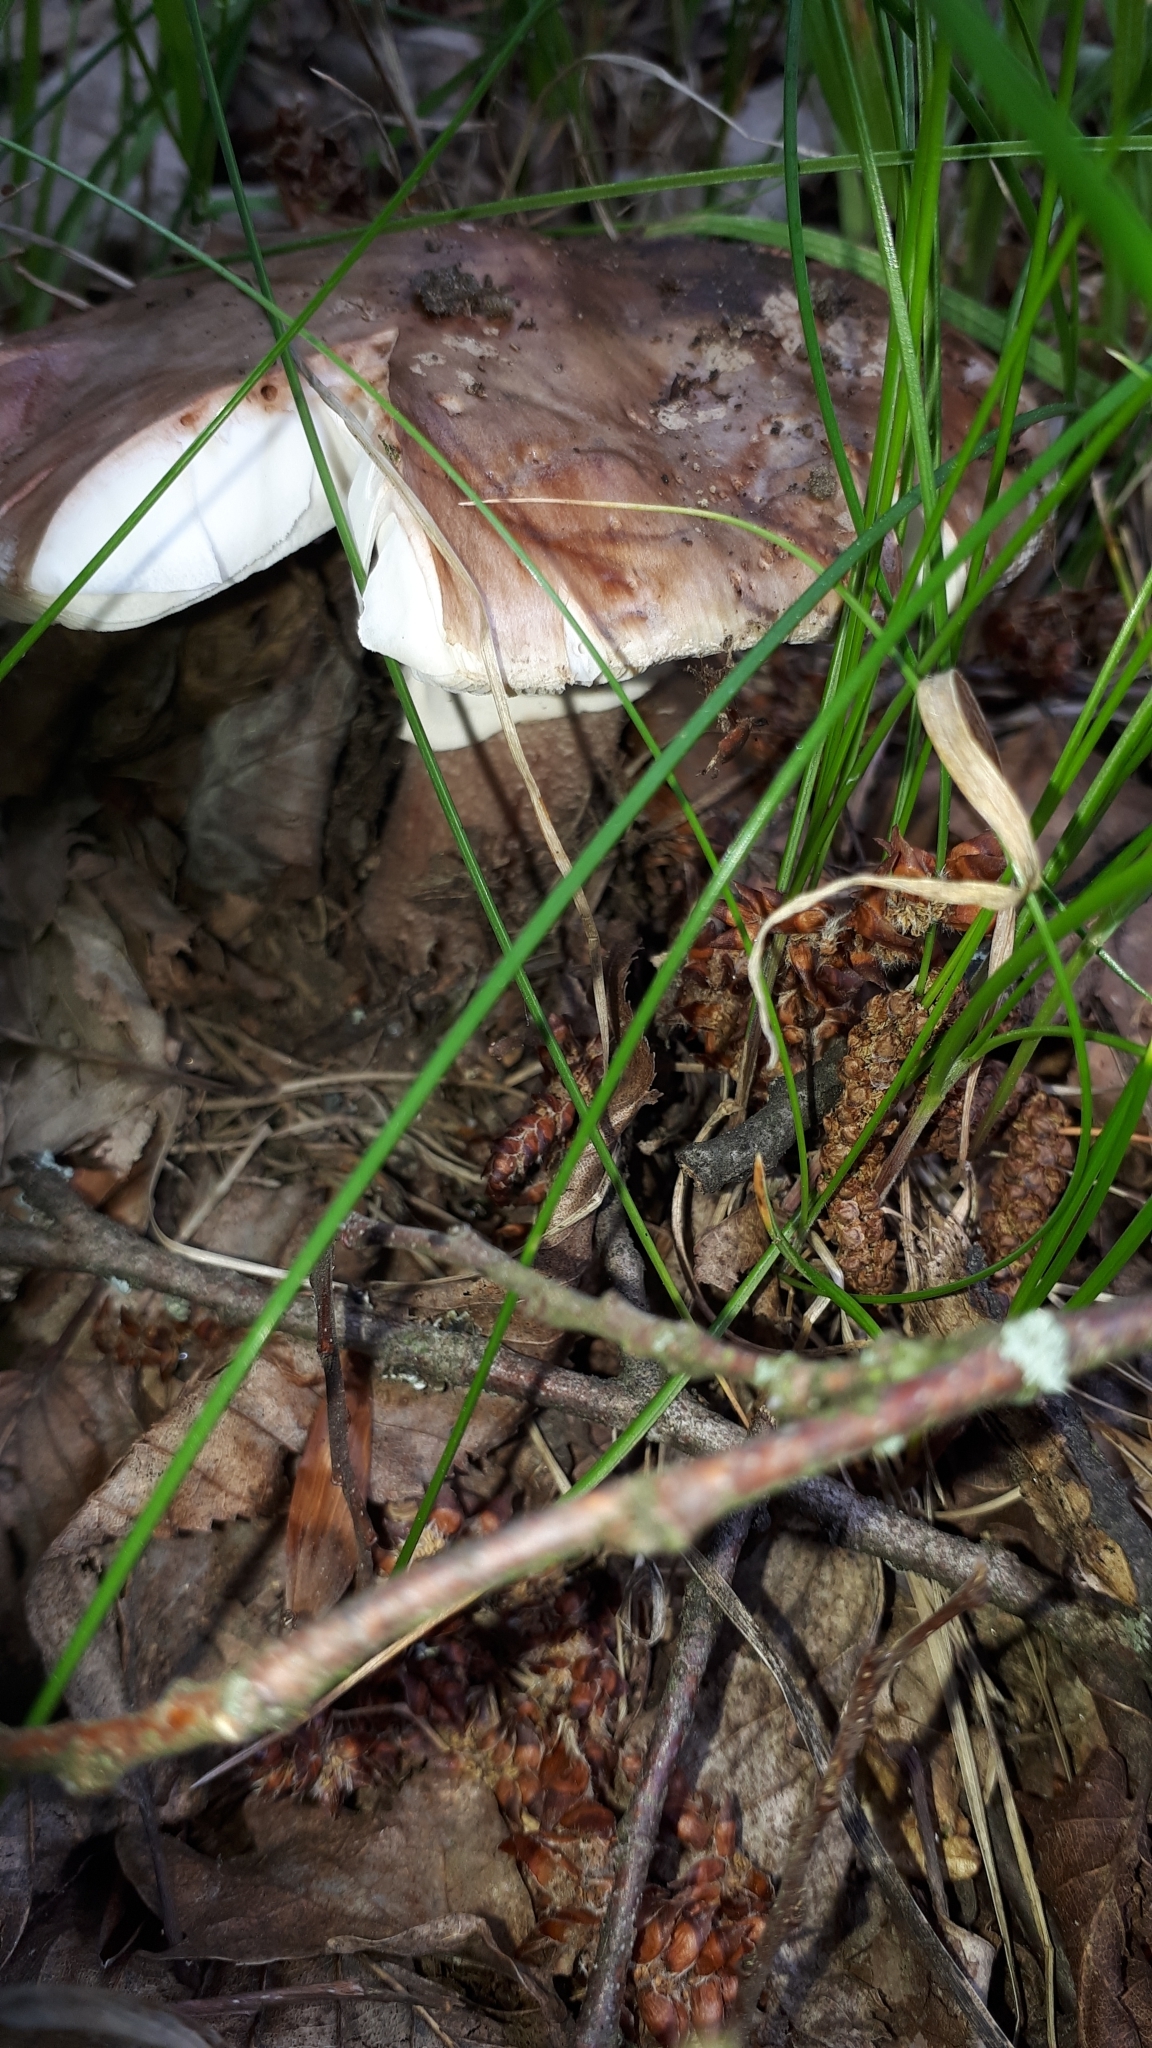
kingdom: Fungi
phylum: Basidiomycota
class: Agaricomycetes
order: Agaricales
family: Amanitaceae
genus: Amanita
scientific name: Amanita rubescens
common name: Blusher
